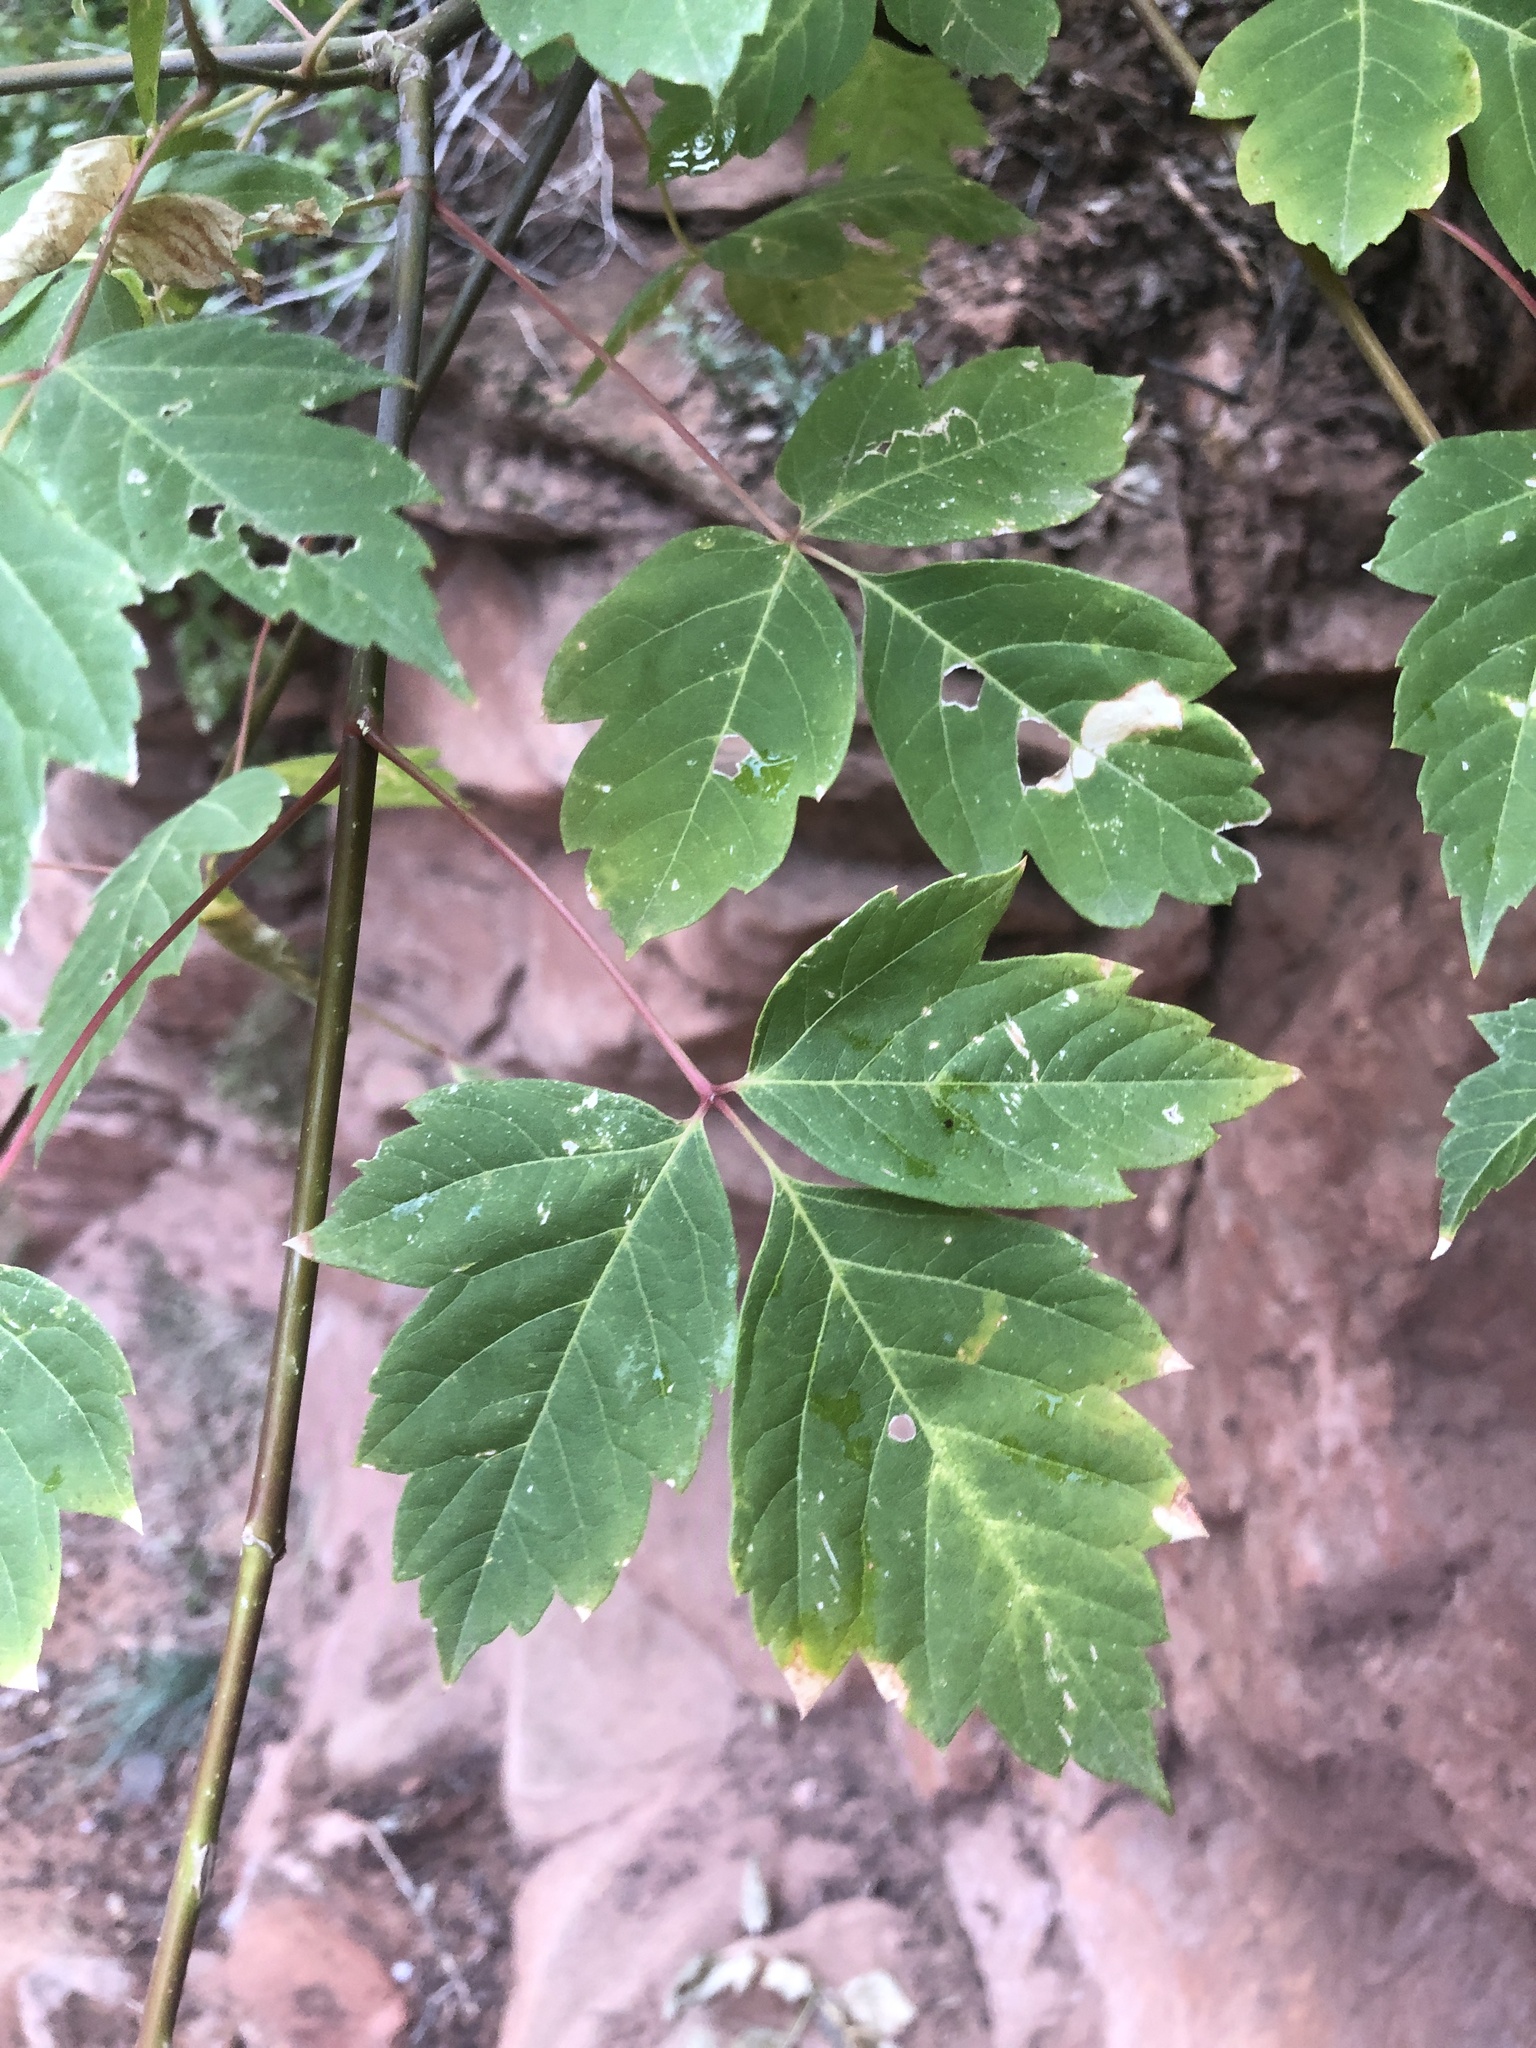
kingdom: Plantae
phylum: Tracheophyta
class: Magnoliopsida
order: Sapindales
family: Sapindaceae
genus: Acer
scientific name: Acer negundo
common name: Ashleaf maple
